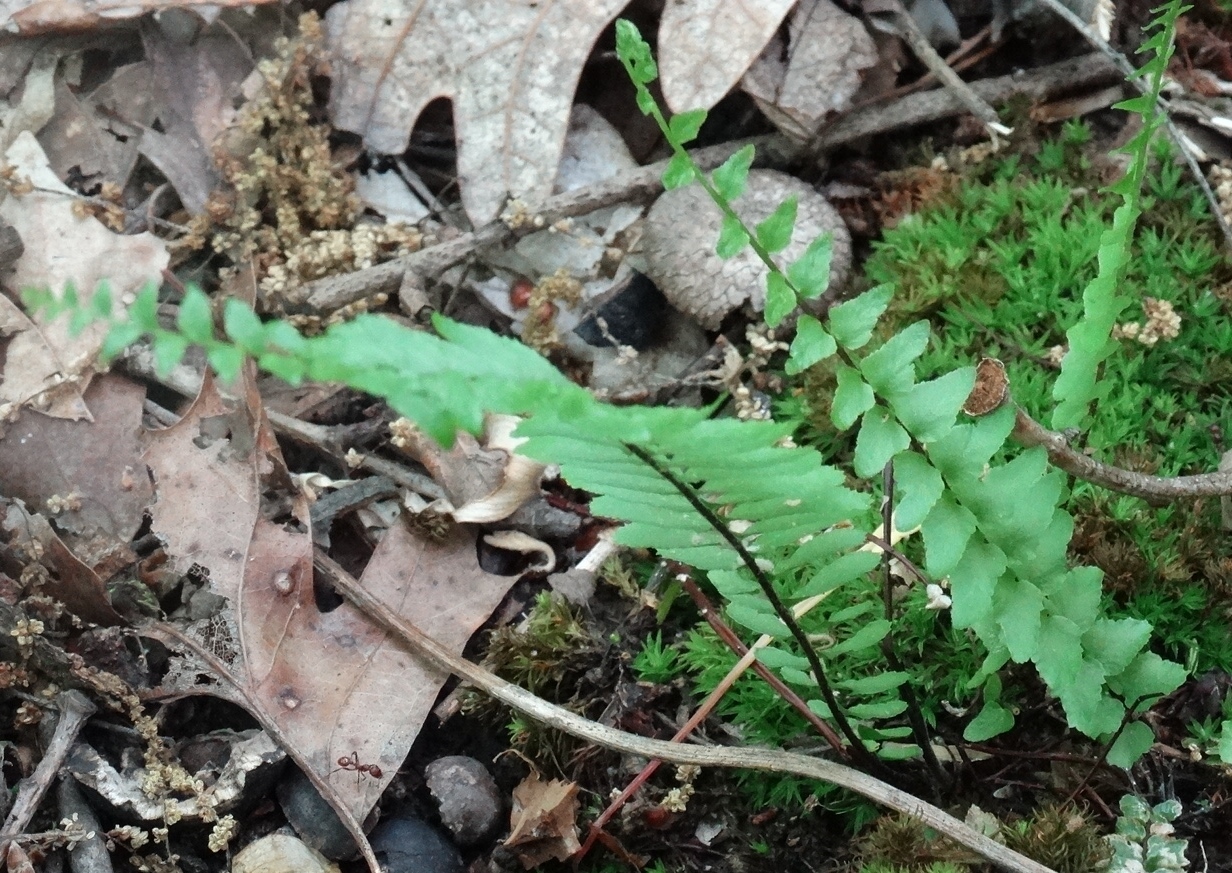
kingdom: Plantae
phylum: Tracheophyta
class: Polypodiopsida
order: Polypodiales
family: Aspleniaceae
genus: Asplenium
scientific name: Asplenium platyneuron
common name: Ebony spleenwort
